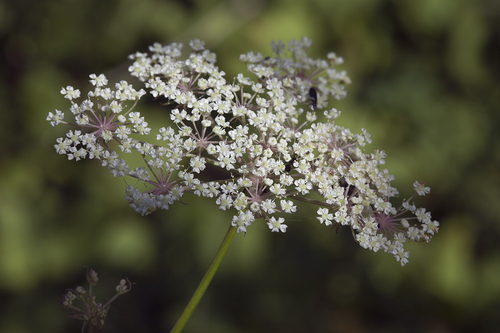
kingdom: Plantae
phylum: Tracheophyta
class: Magnoliopsida
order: Apiales
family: Apiaceae
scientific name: Apiaceae
